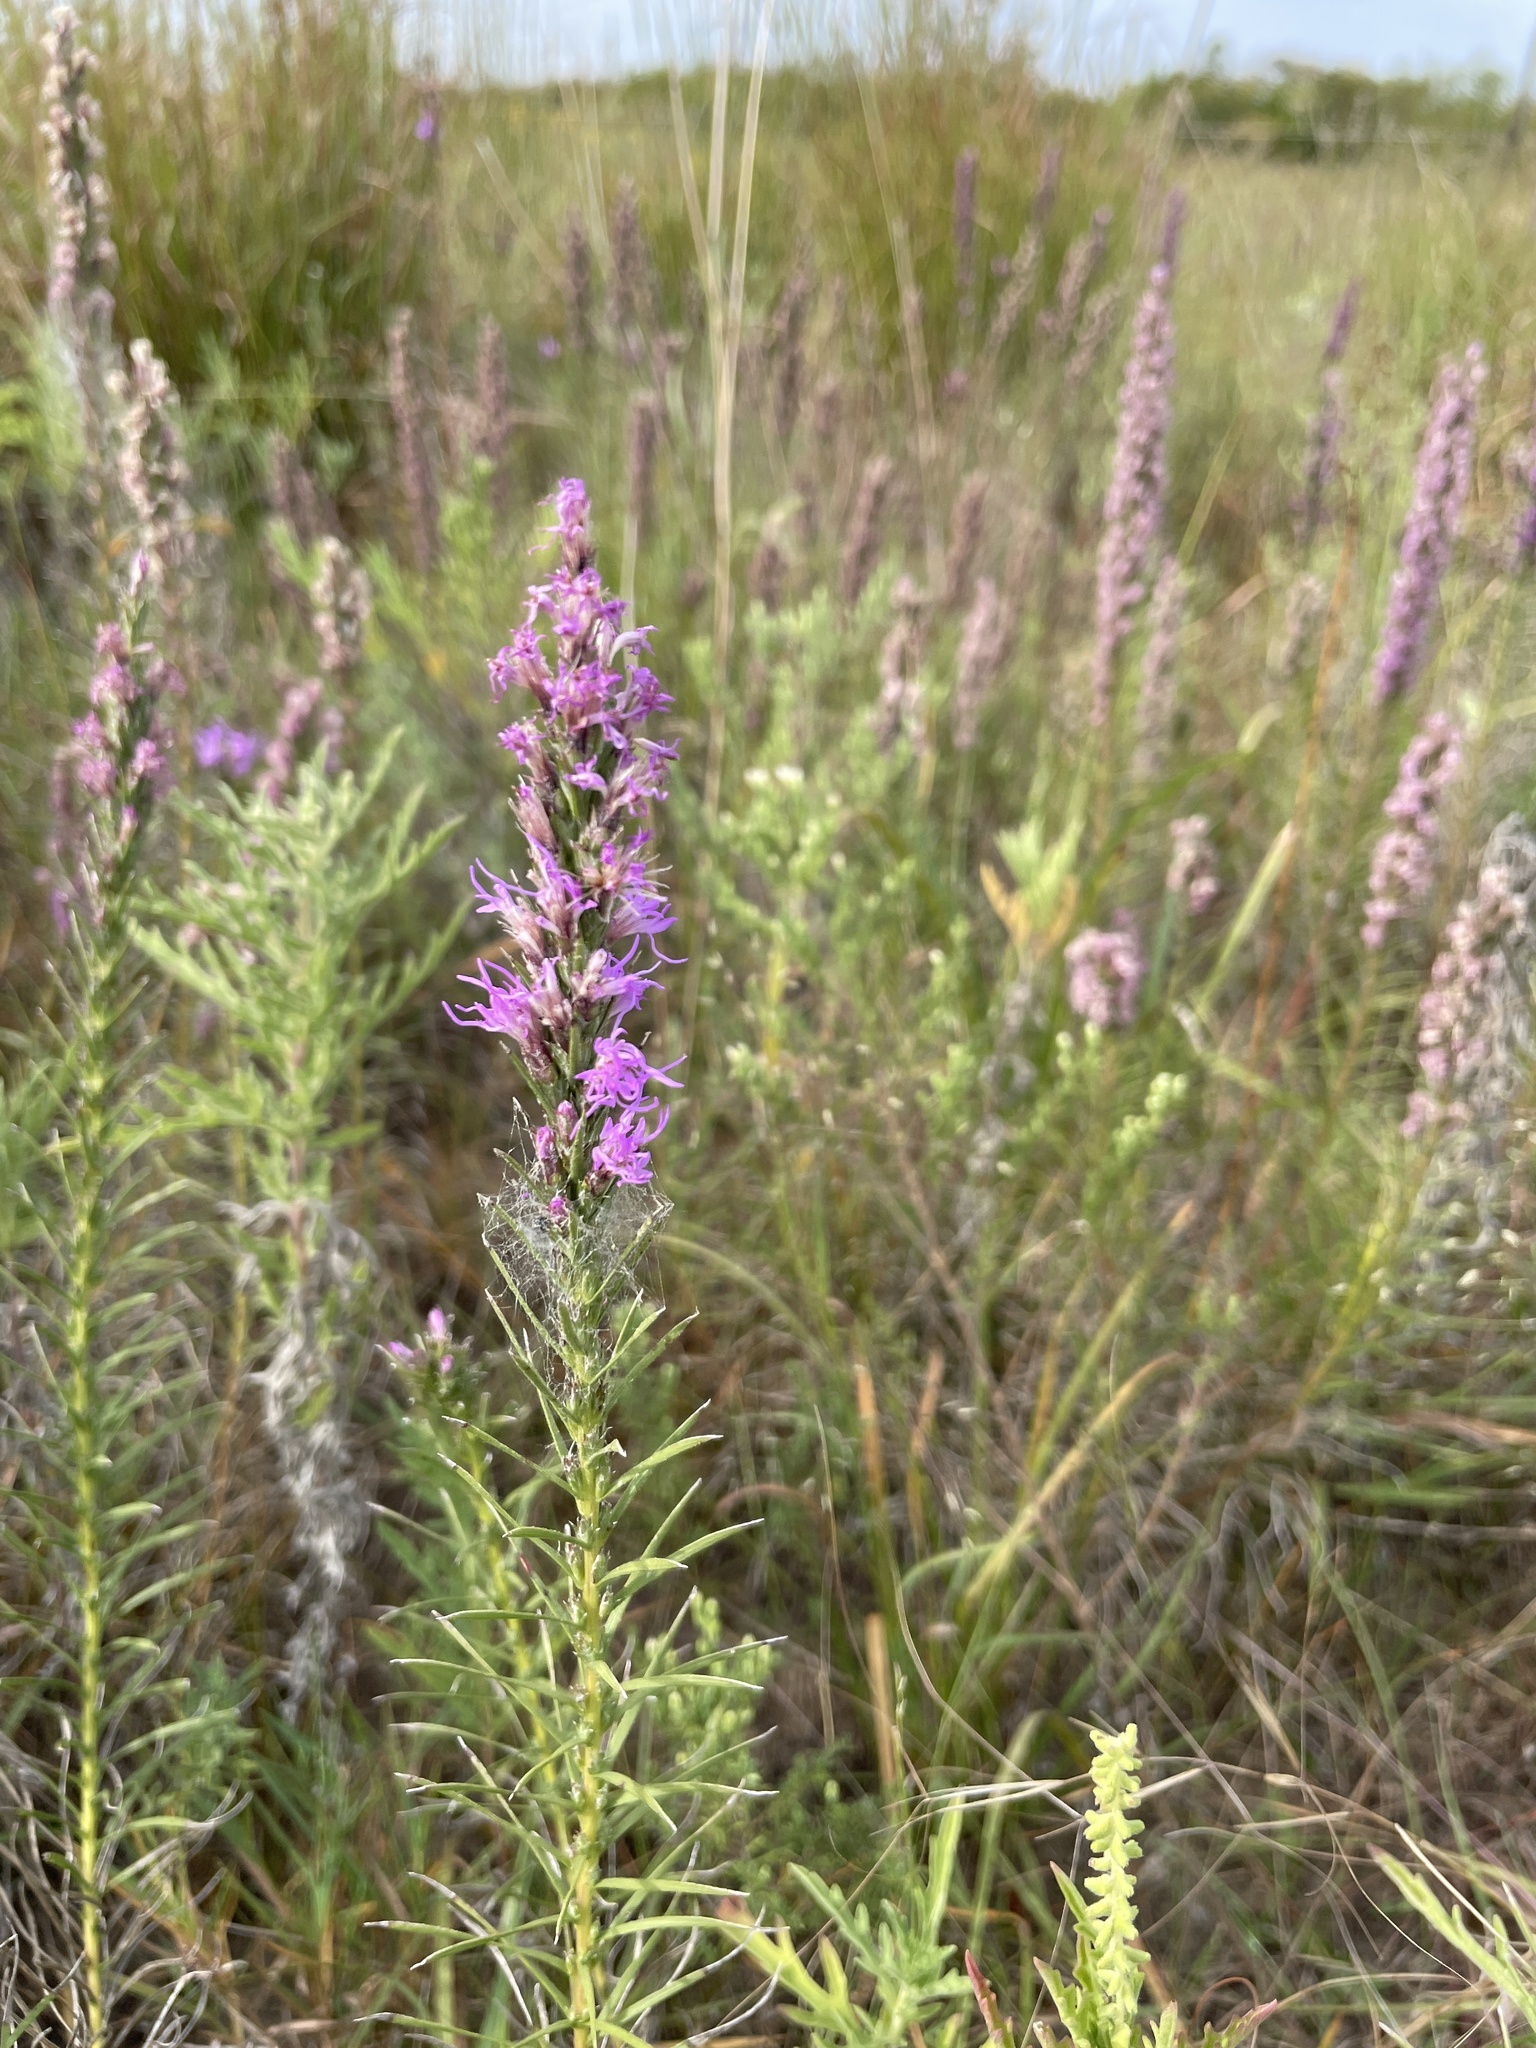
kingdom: Plantae
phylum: Tracheophyta
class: Magnoliopsida
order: Asterales
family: Asteraceae
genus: Liatris
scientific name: Liatris punctata
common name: Dotted gayfeather
